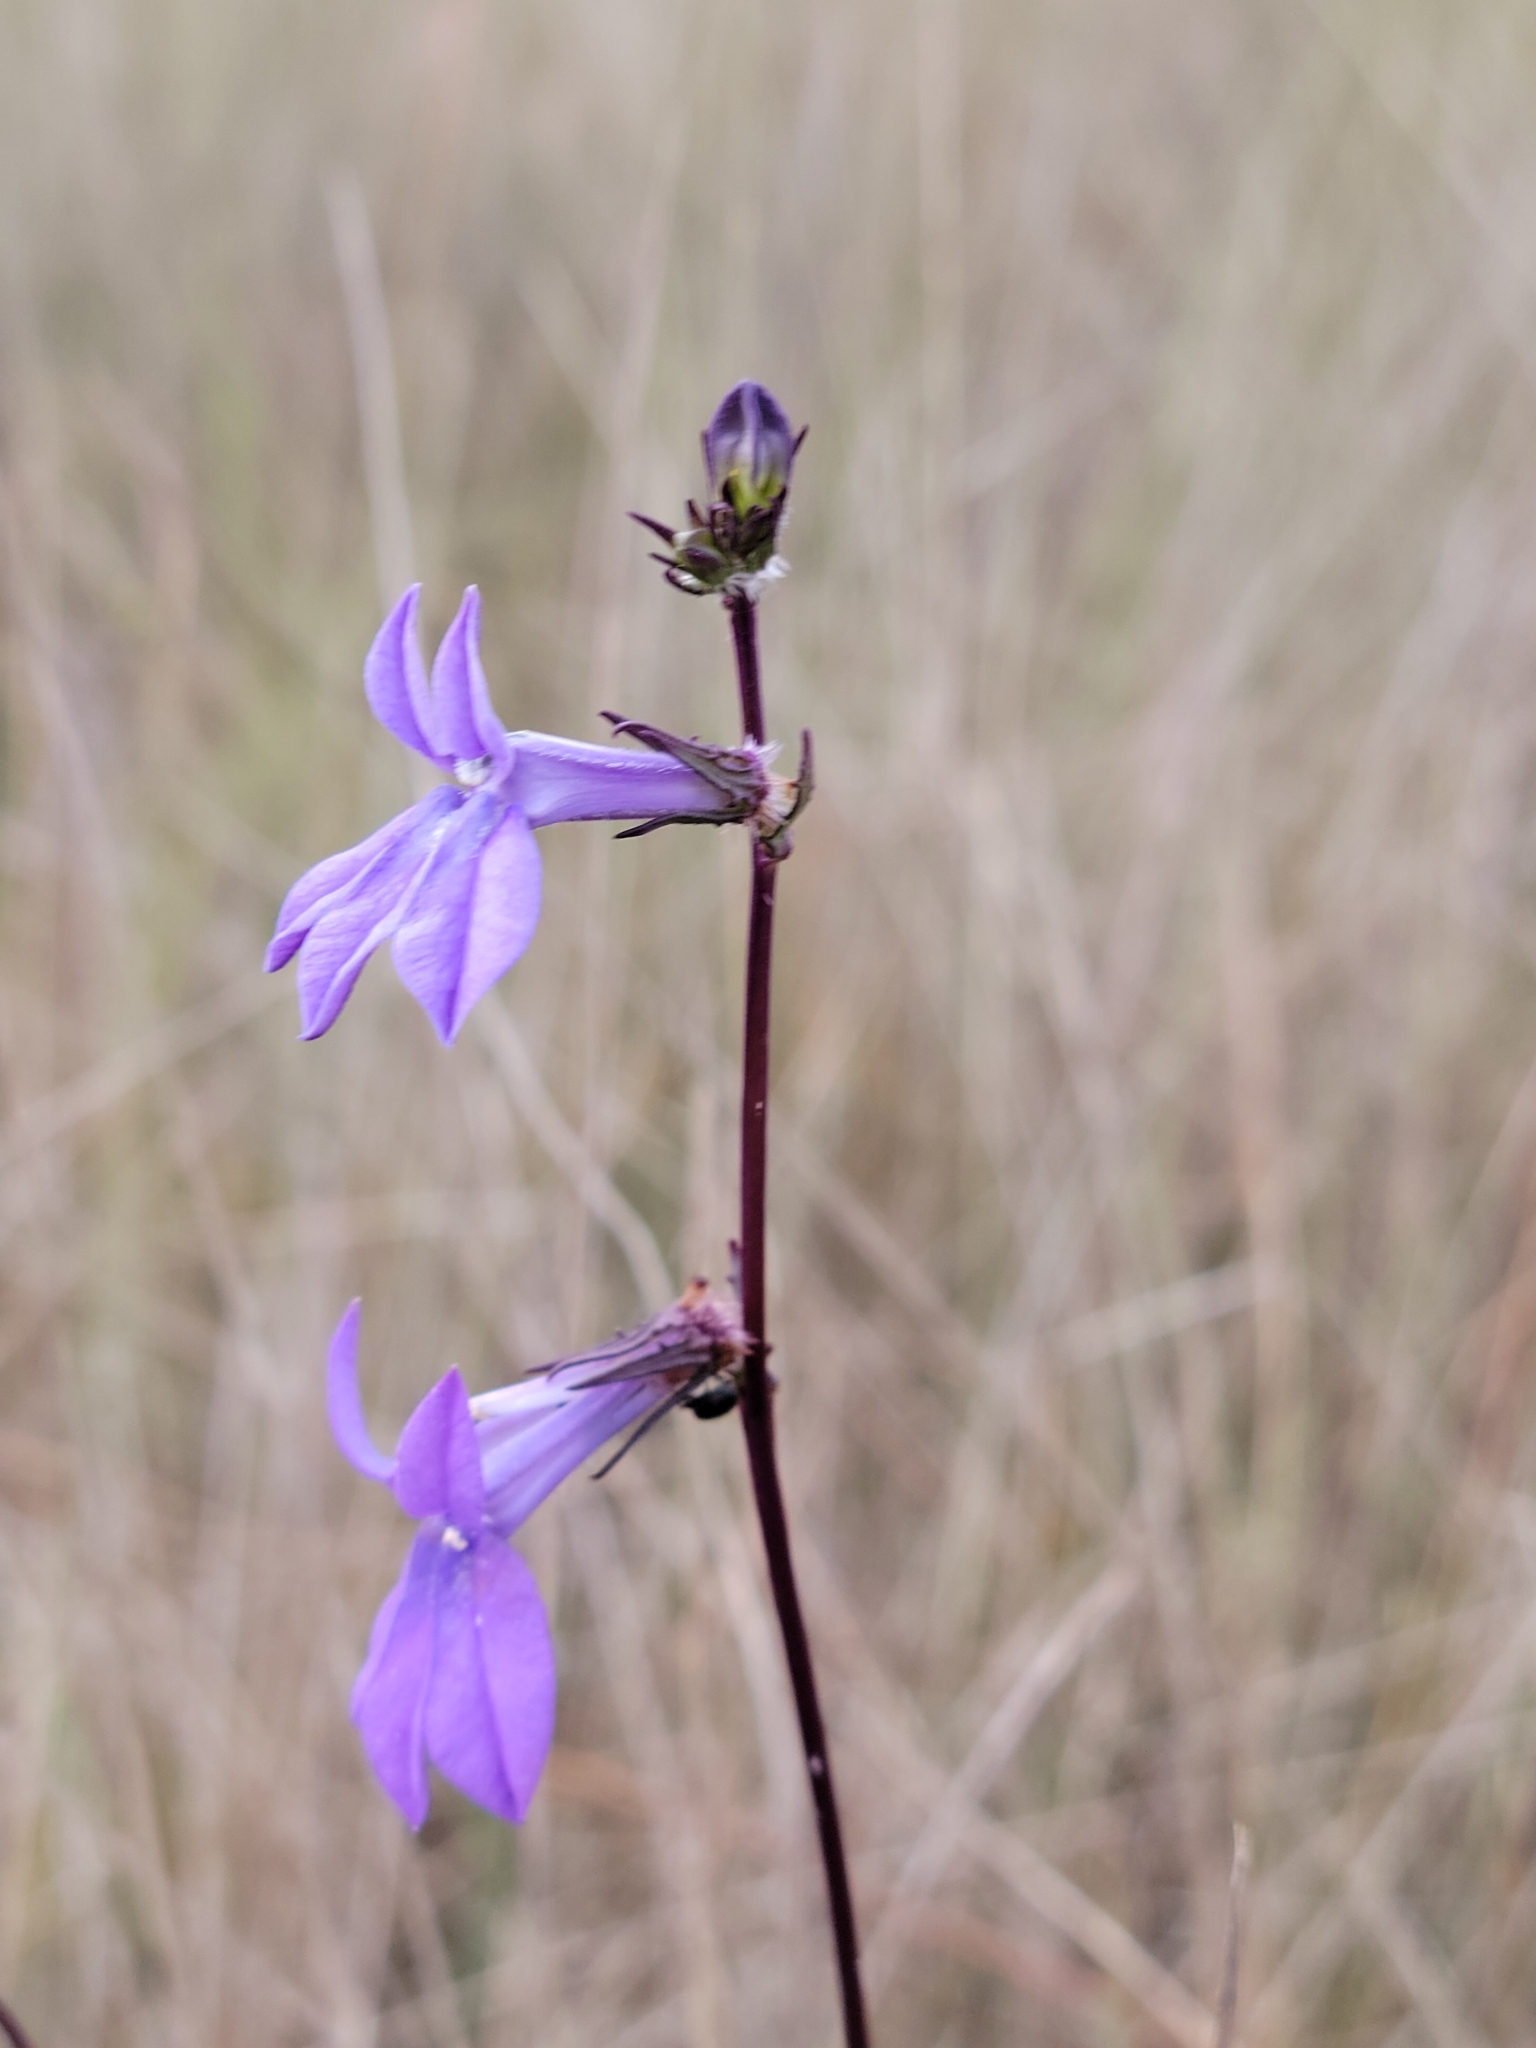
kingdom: Plantae
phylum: Tracheophyta
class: Magnoliopsida
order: Asterales
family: Campanulaceae
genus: Lobelia
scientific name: Lobelia glandulosa
